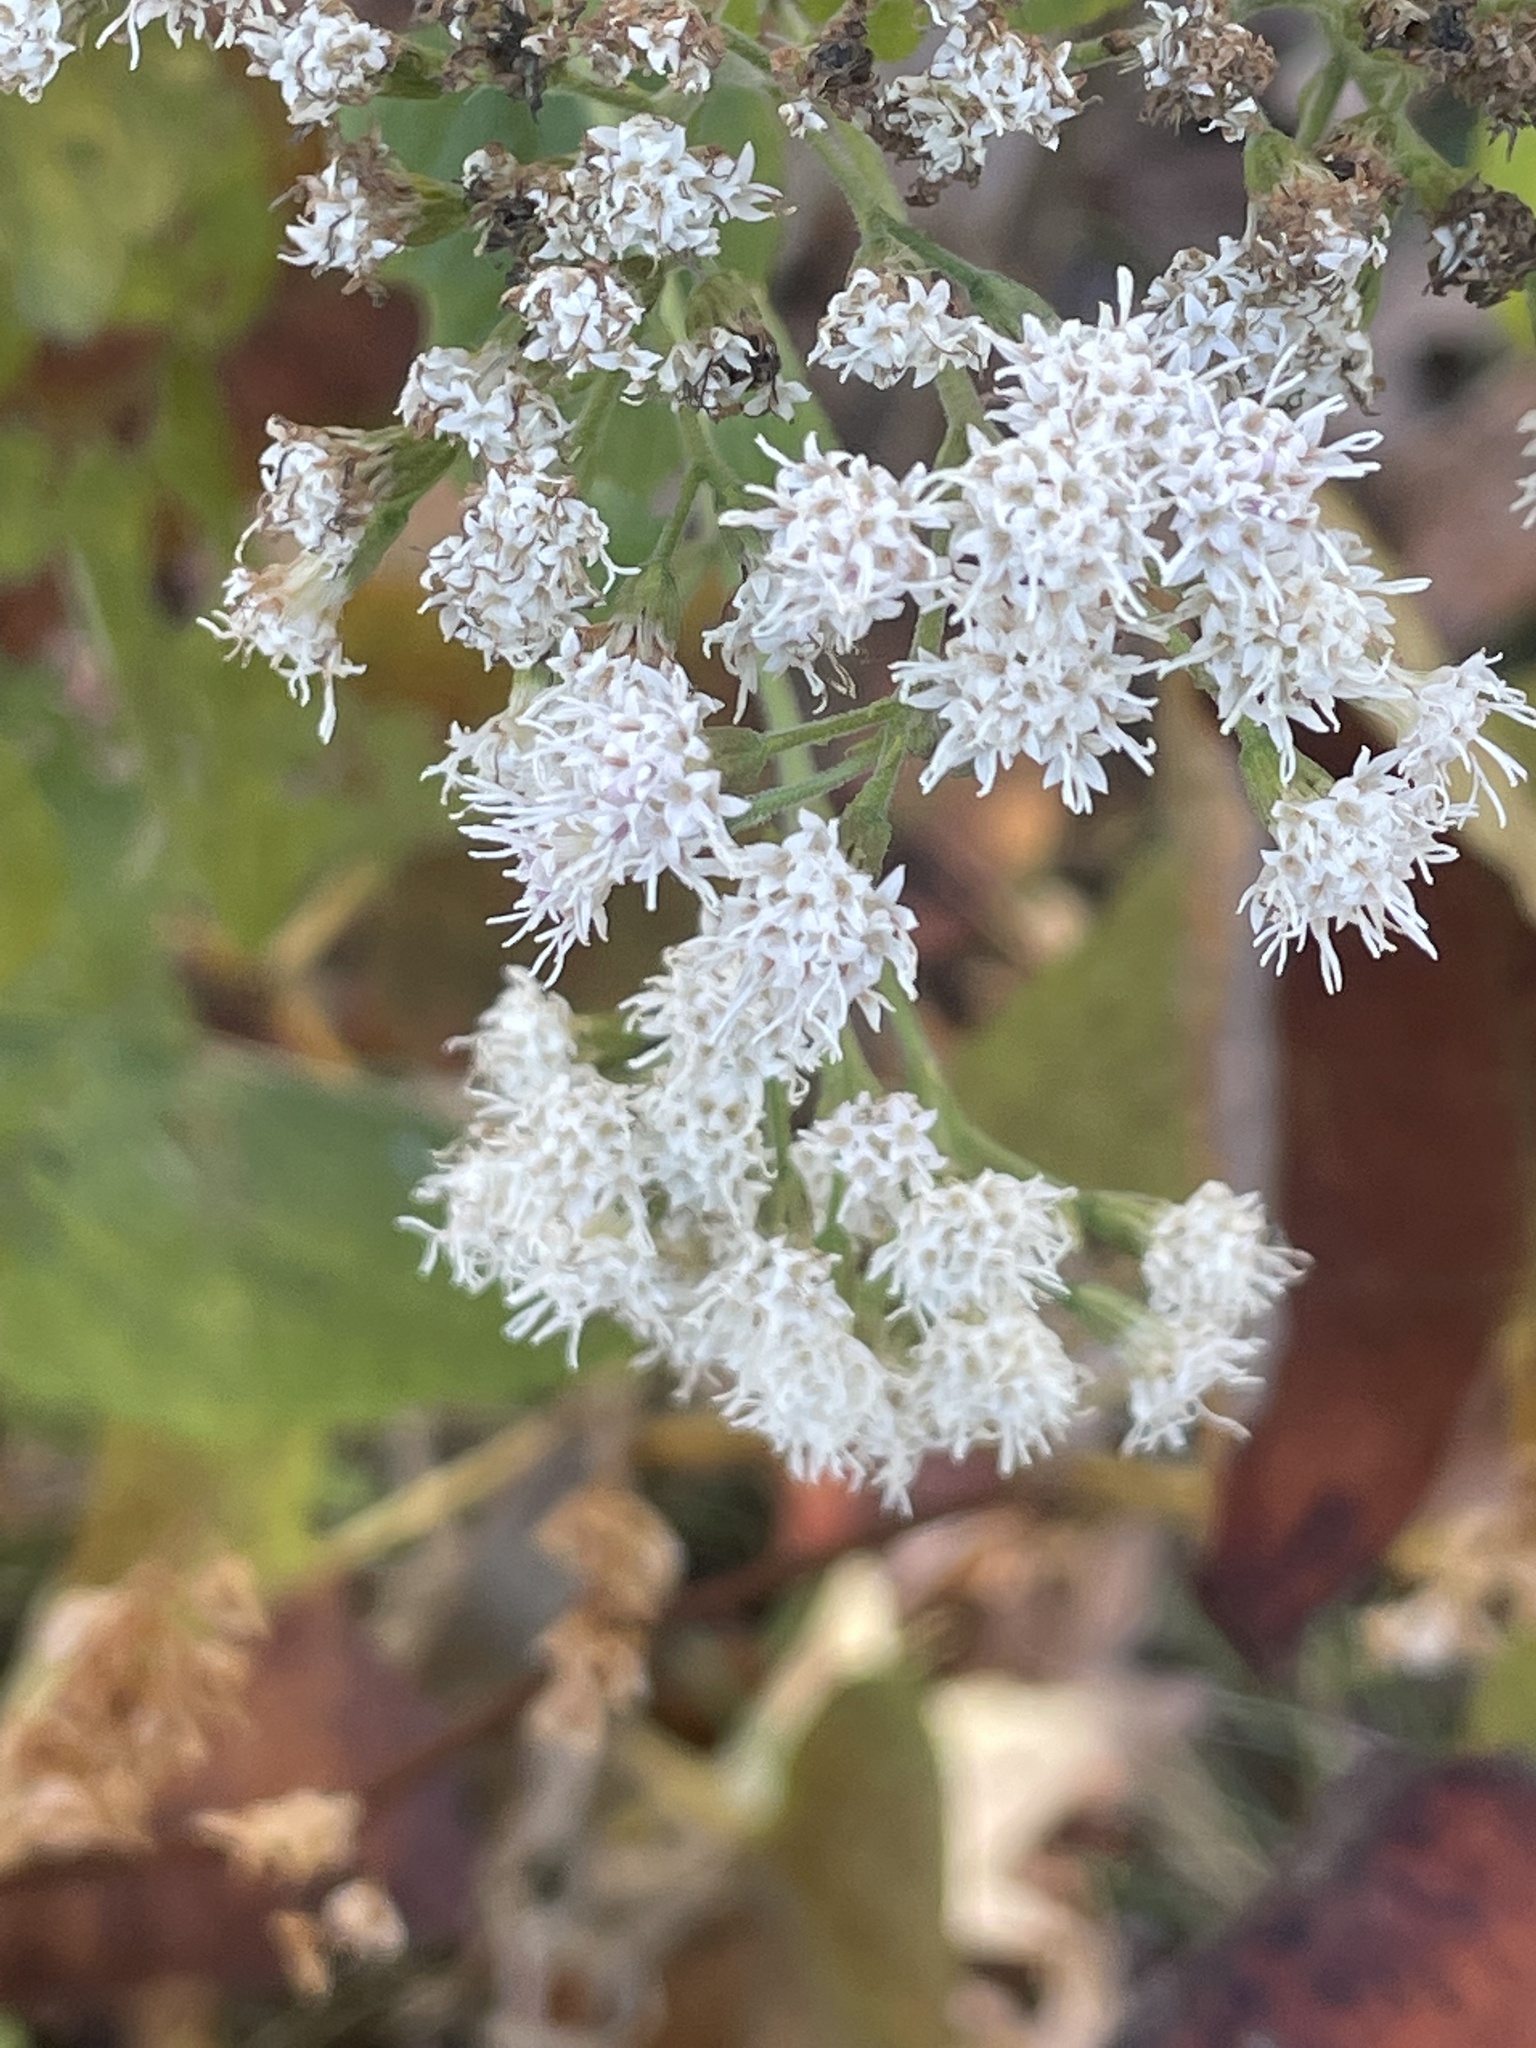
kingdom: Plantae
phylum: Tracheophyta
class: Magnoliopsida
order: Asterales
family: Asteraceae
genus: Ageratina
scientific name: Ageratina altissima
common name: White snakeroot
